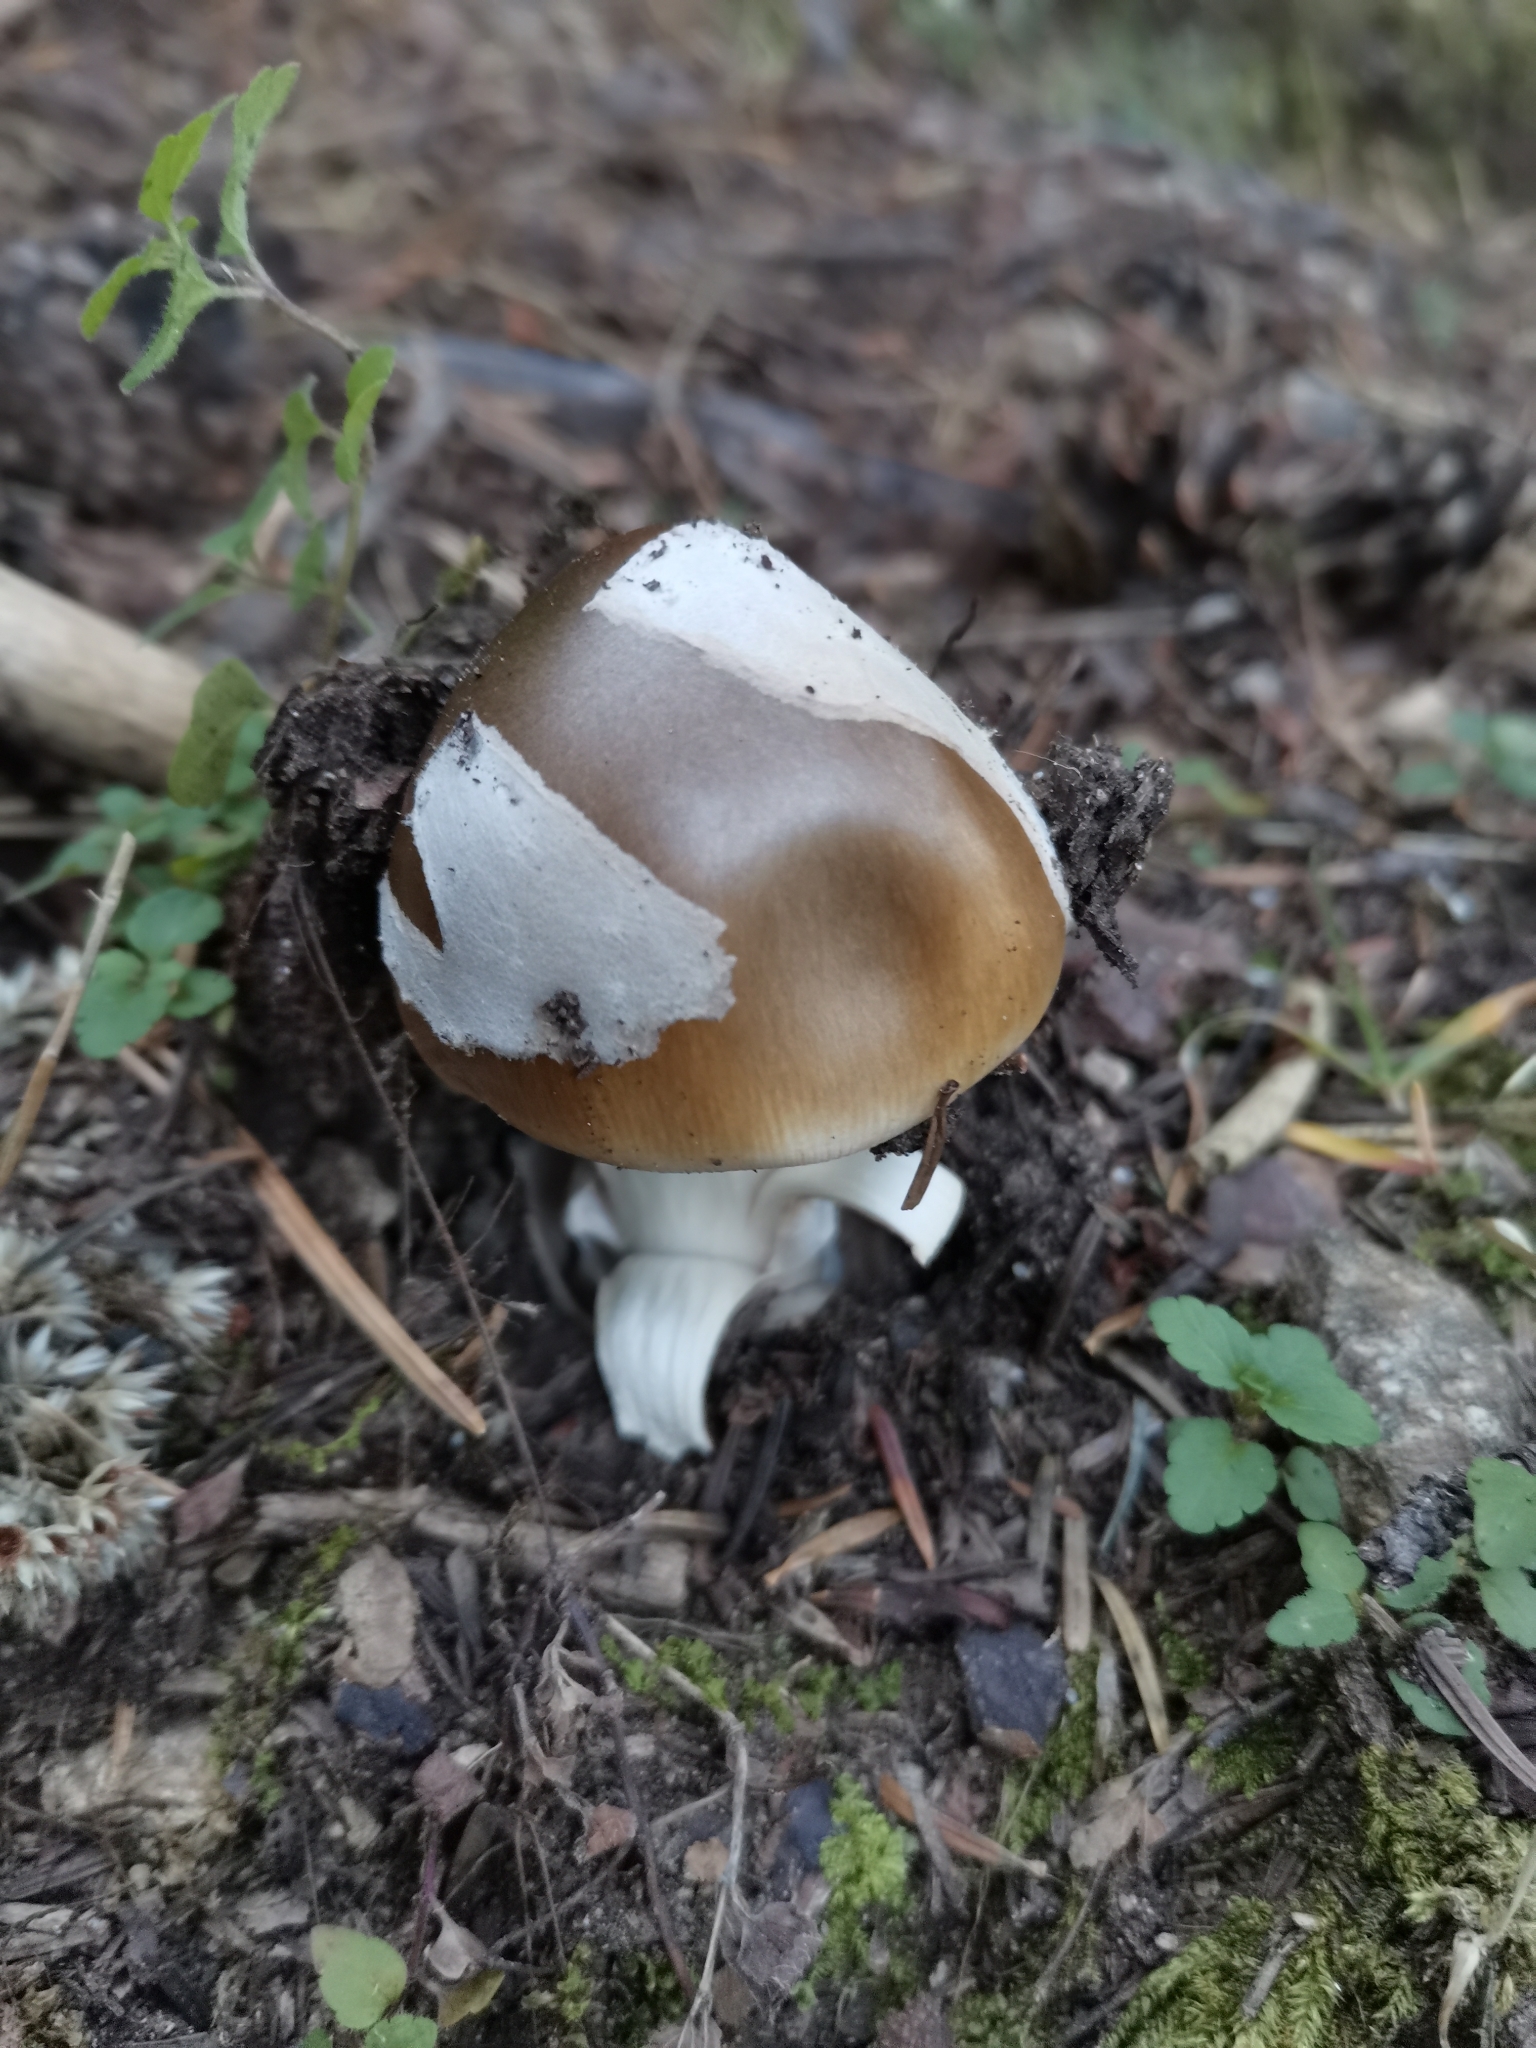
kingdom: Fungi
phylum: Basidiomycota
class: Agaricomycetes
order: Agaricales
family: Amanitaceae
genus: Amanita
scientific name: Amanita submembranacea
